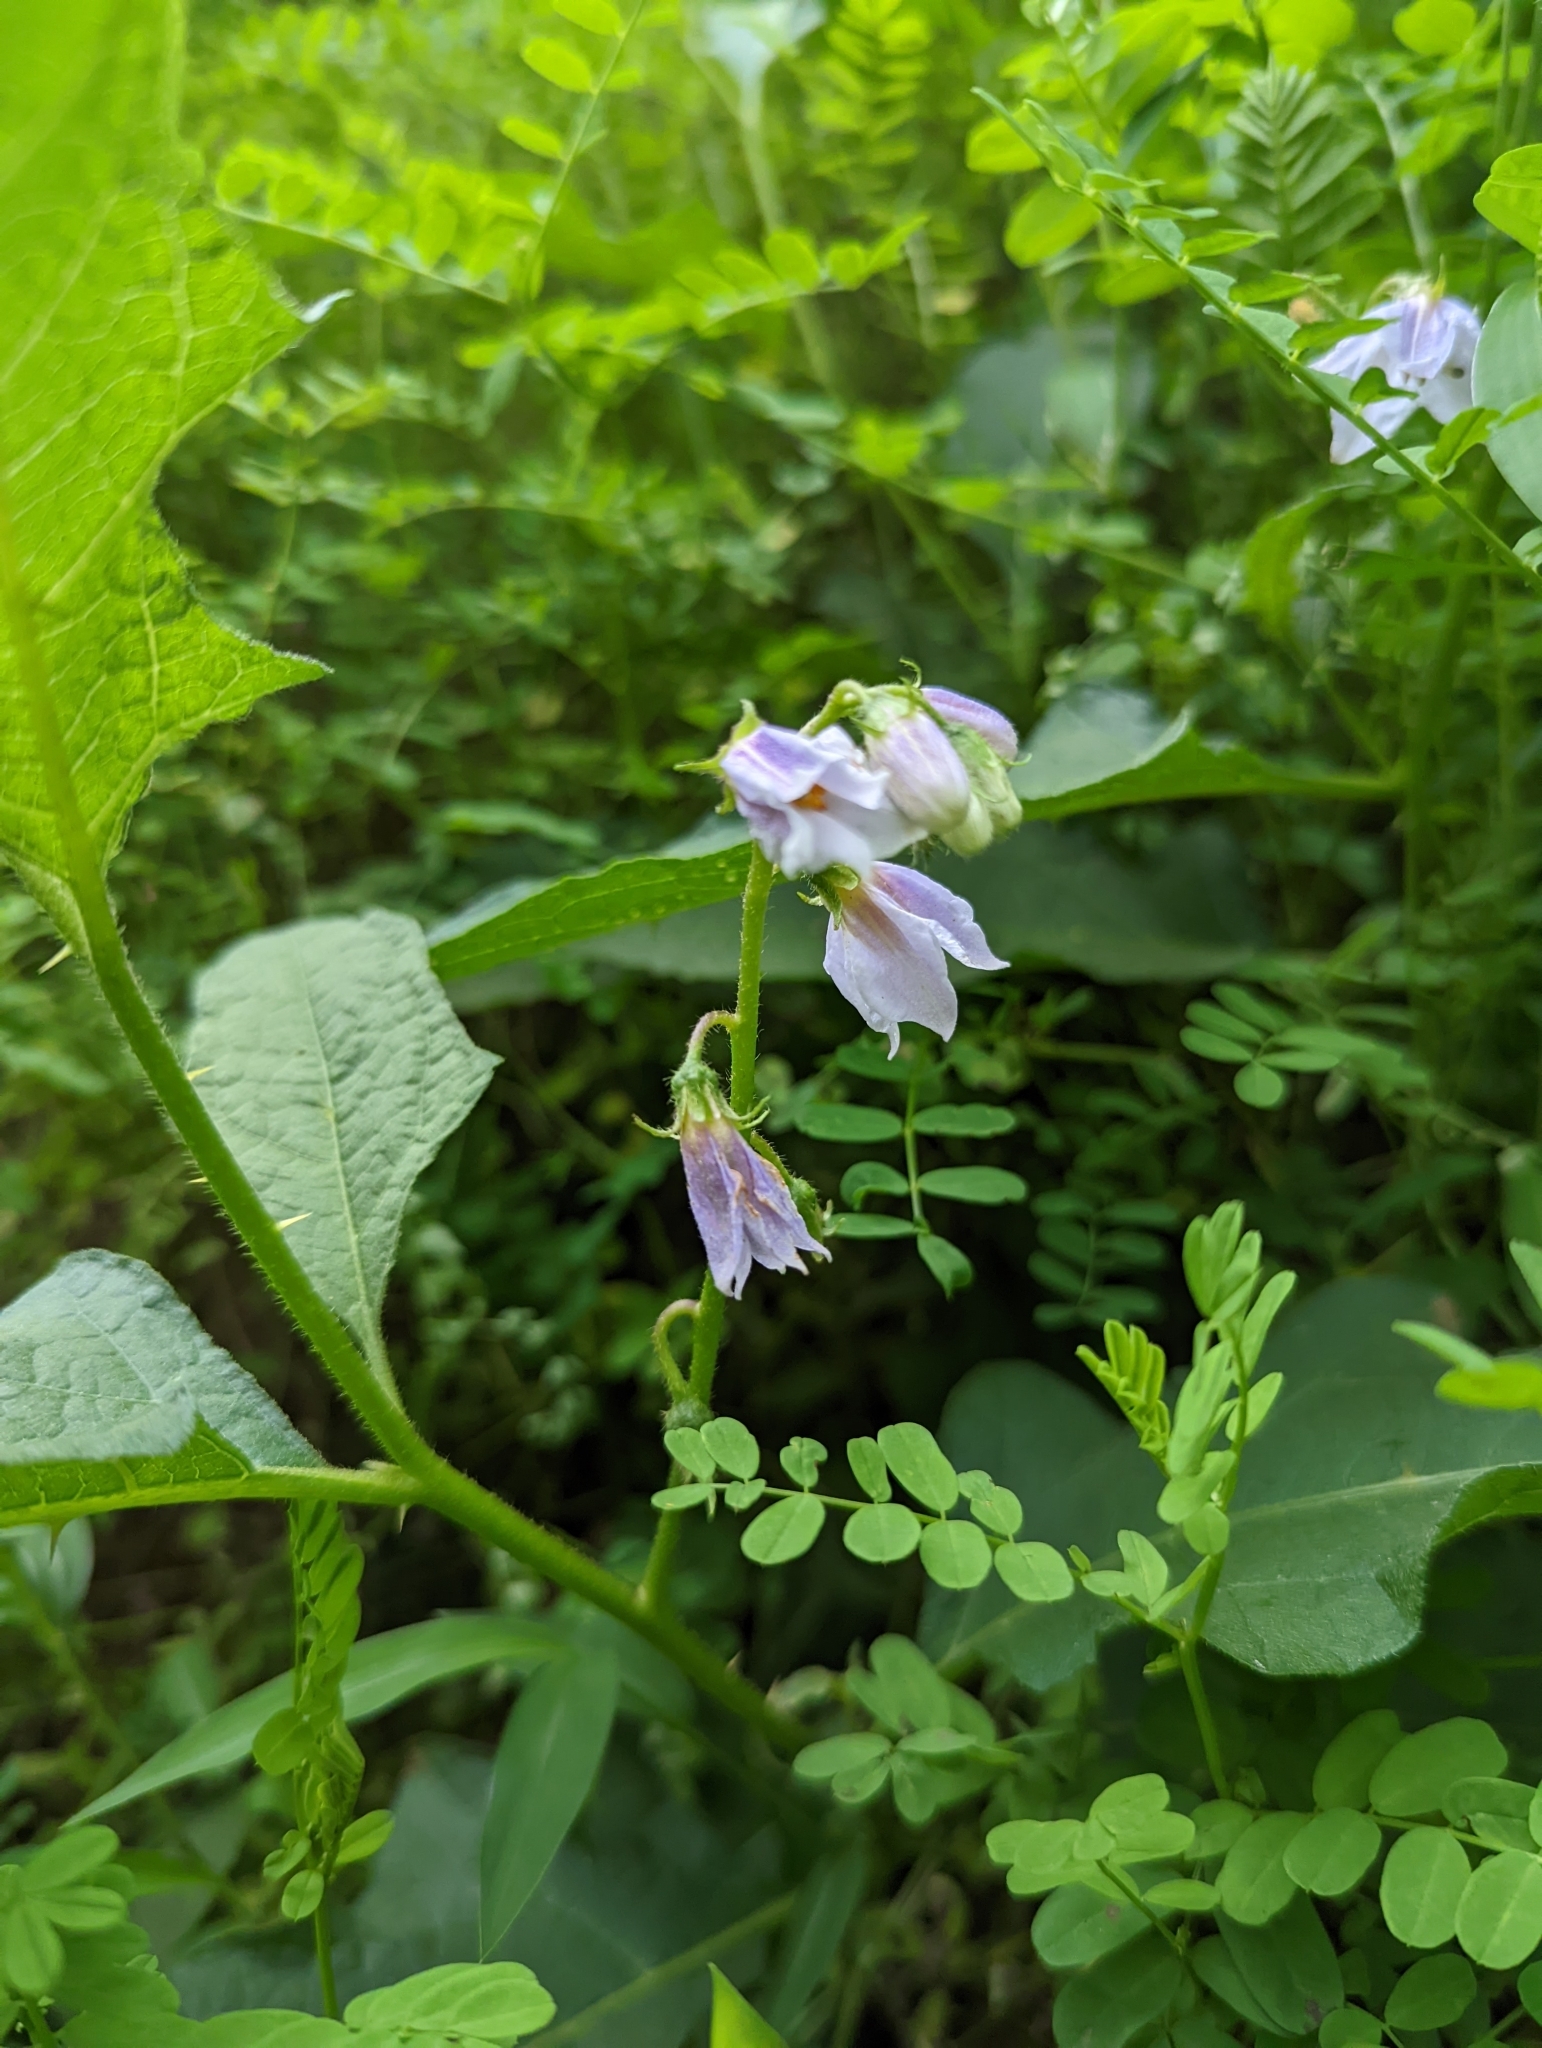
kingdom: Plantae
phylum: Tracheophyta
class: Magnoliopsida
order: Solanales
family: Solanaceae
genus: Solanum
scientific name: Solanum carolinense
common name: Horse-nettle
